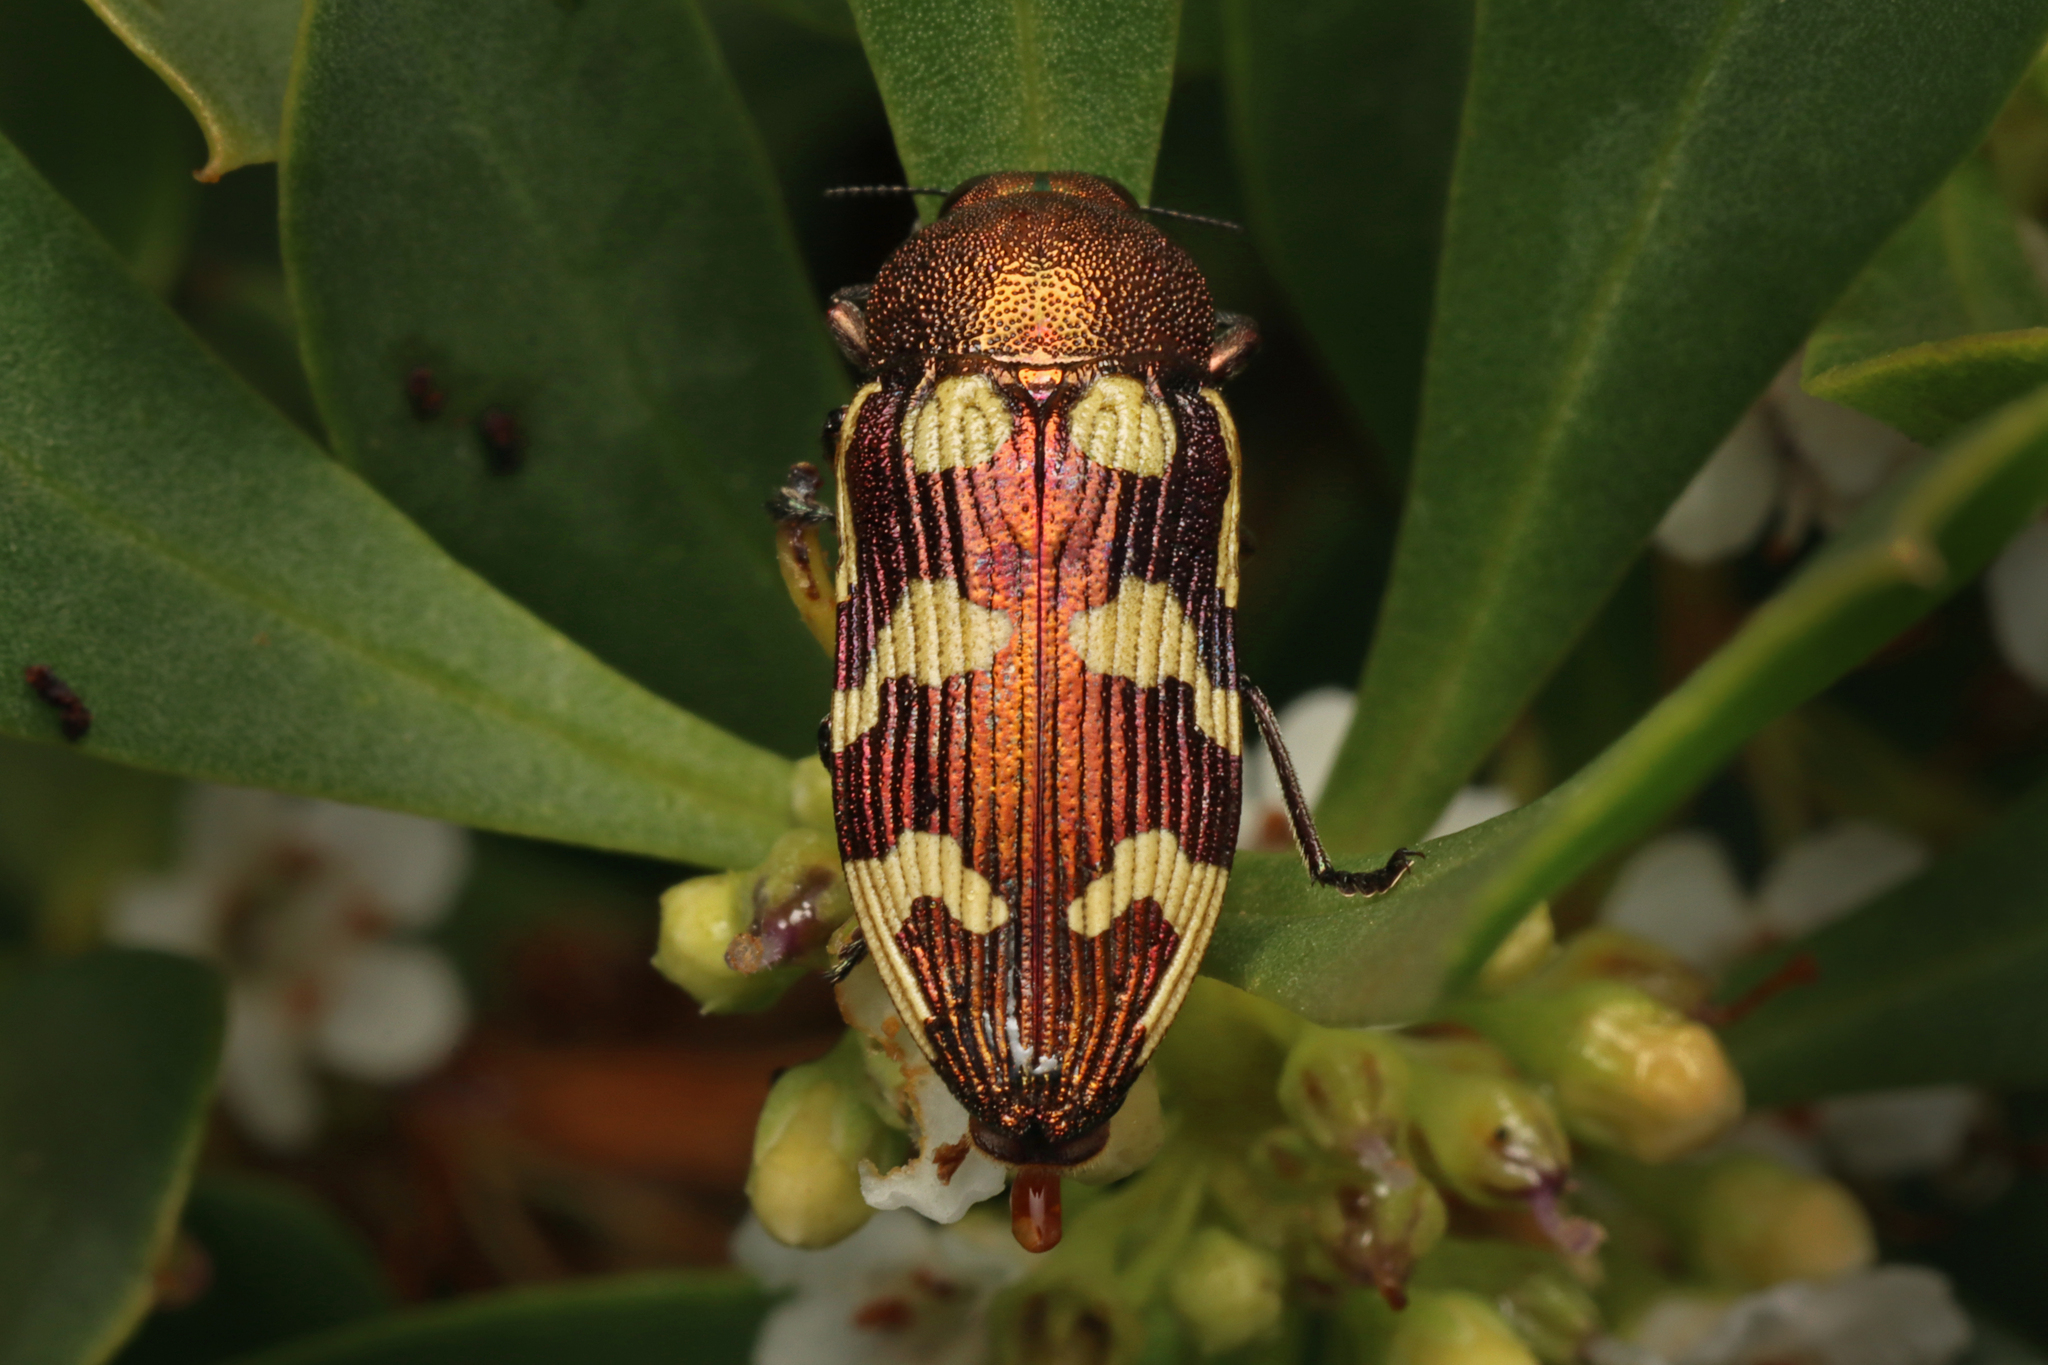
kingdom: Animalia
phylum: Arthropoda
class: Insecta
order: Coleoptera
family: Buprestidae
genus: Castiarina
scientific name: Castiarina cupreoflava
